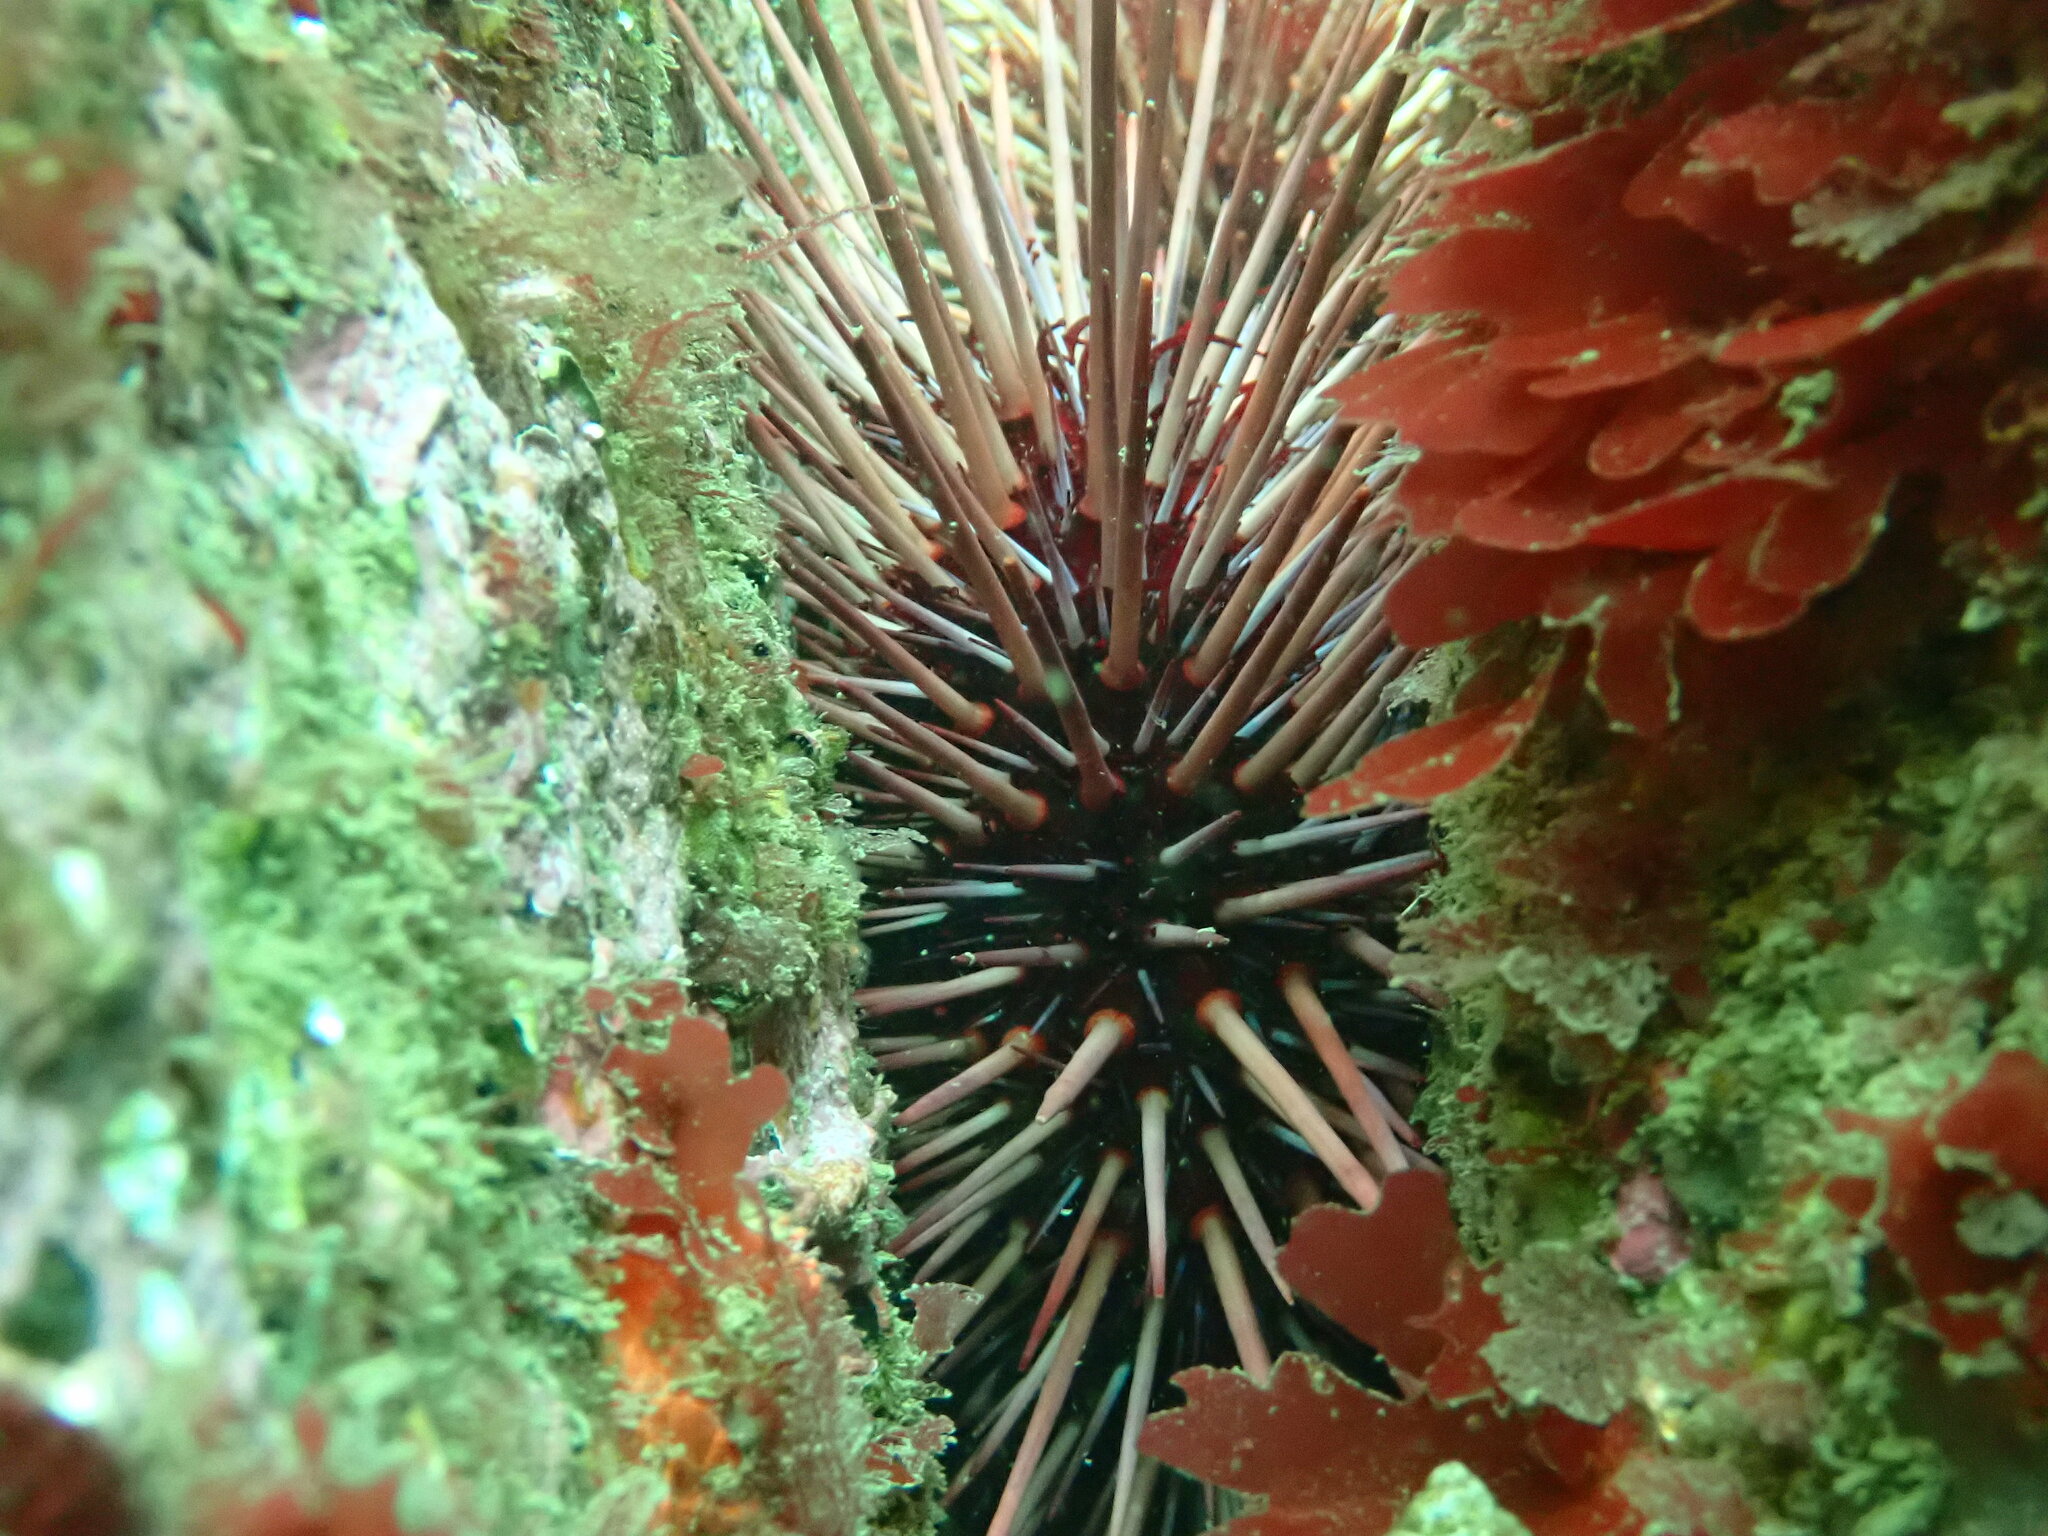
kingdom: Animalia
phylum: Echinodermata
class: Echinoidea
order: Camarodonta
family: Strongylocentrotidae
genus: Mesocentrotus
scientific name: Mesocentrotus franciscanus
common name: Red sea urchin
